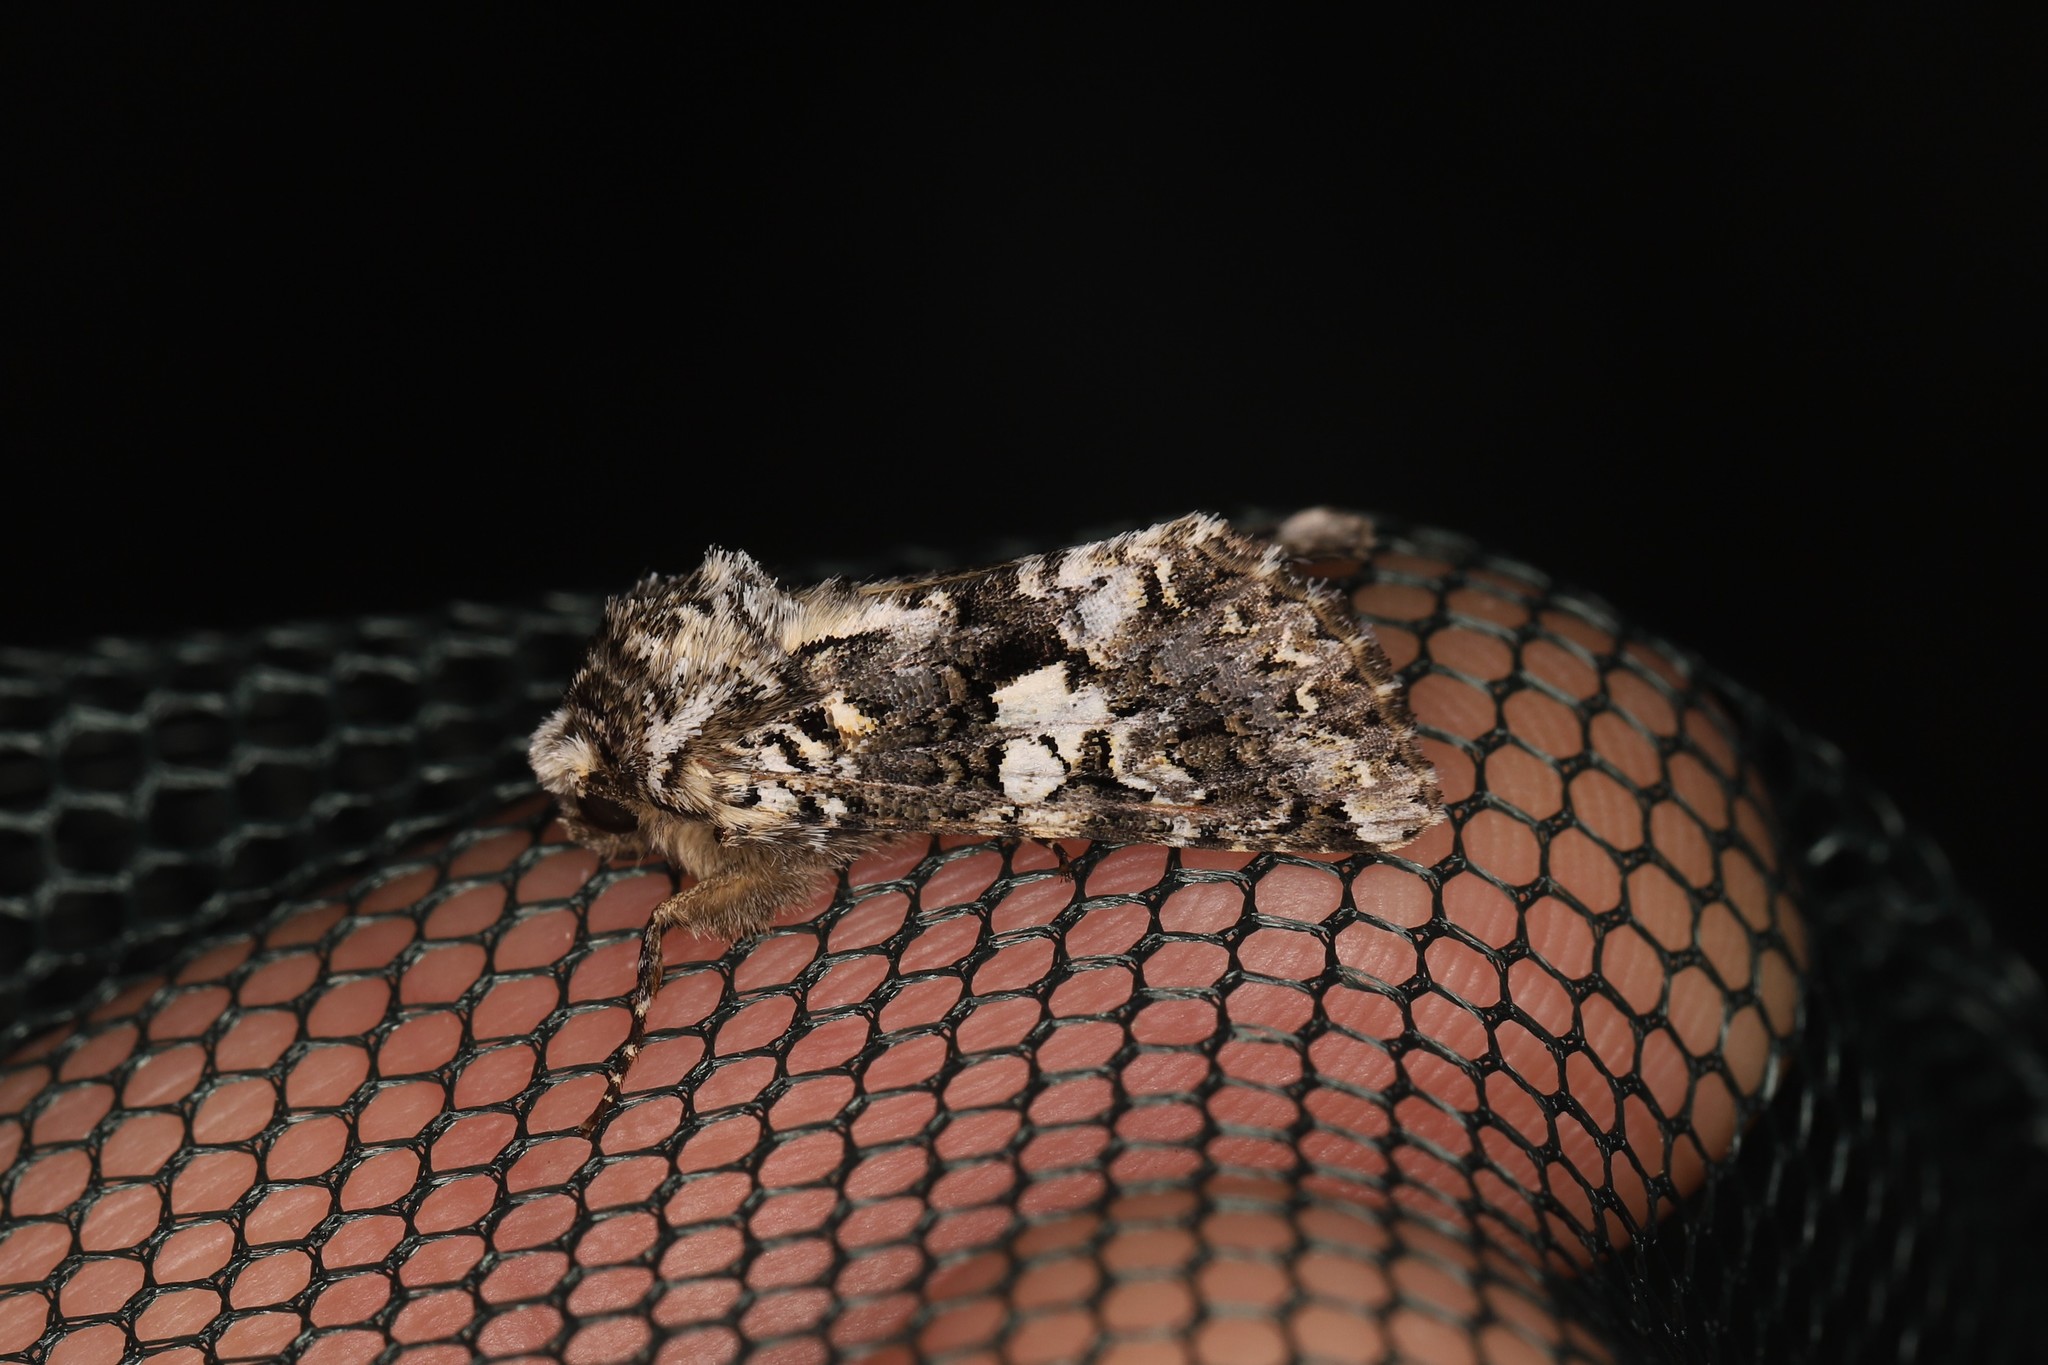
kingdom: Animalia
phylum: Arthropoda
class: Insecta
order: Lepidoptera
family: Noctuidae
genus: Hadena
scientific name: Hadena confusa
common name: Marbled coronet
